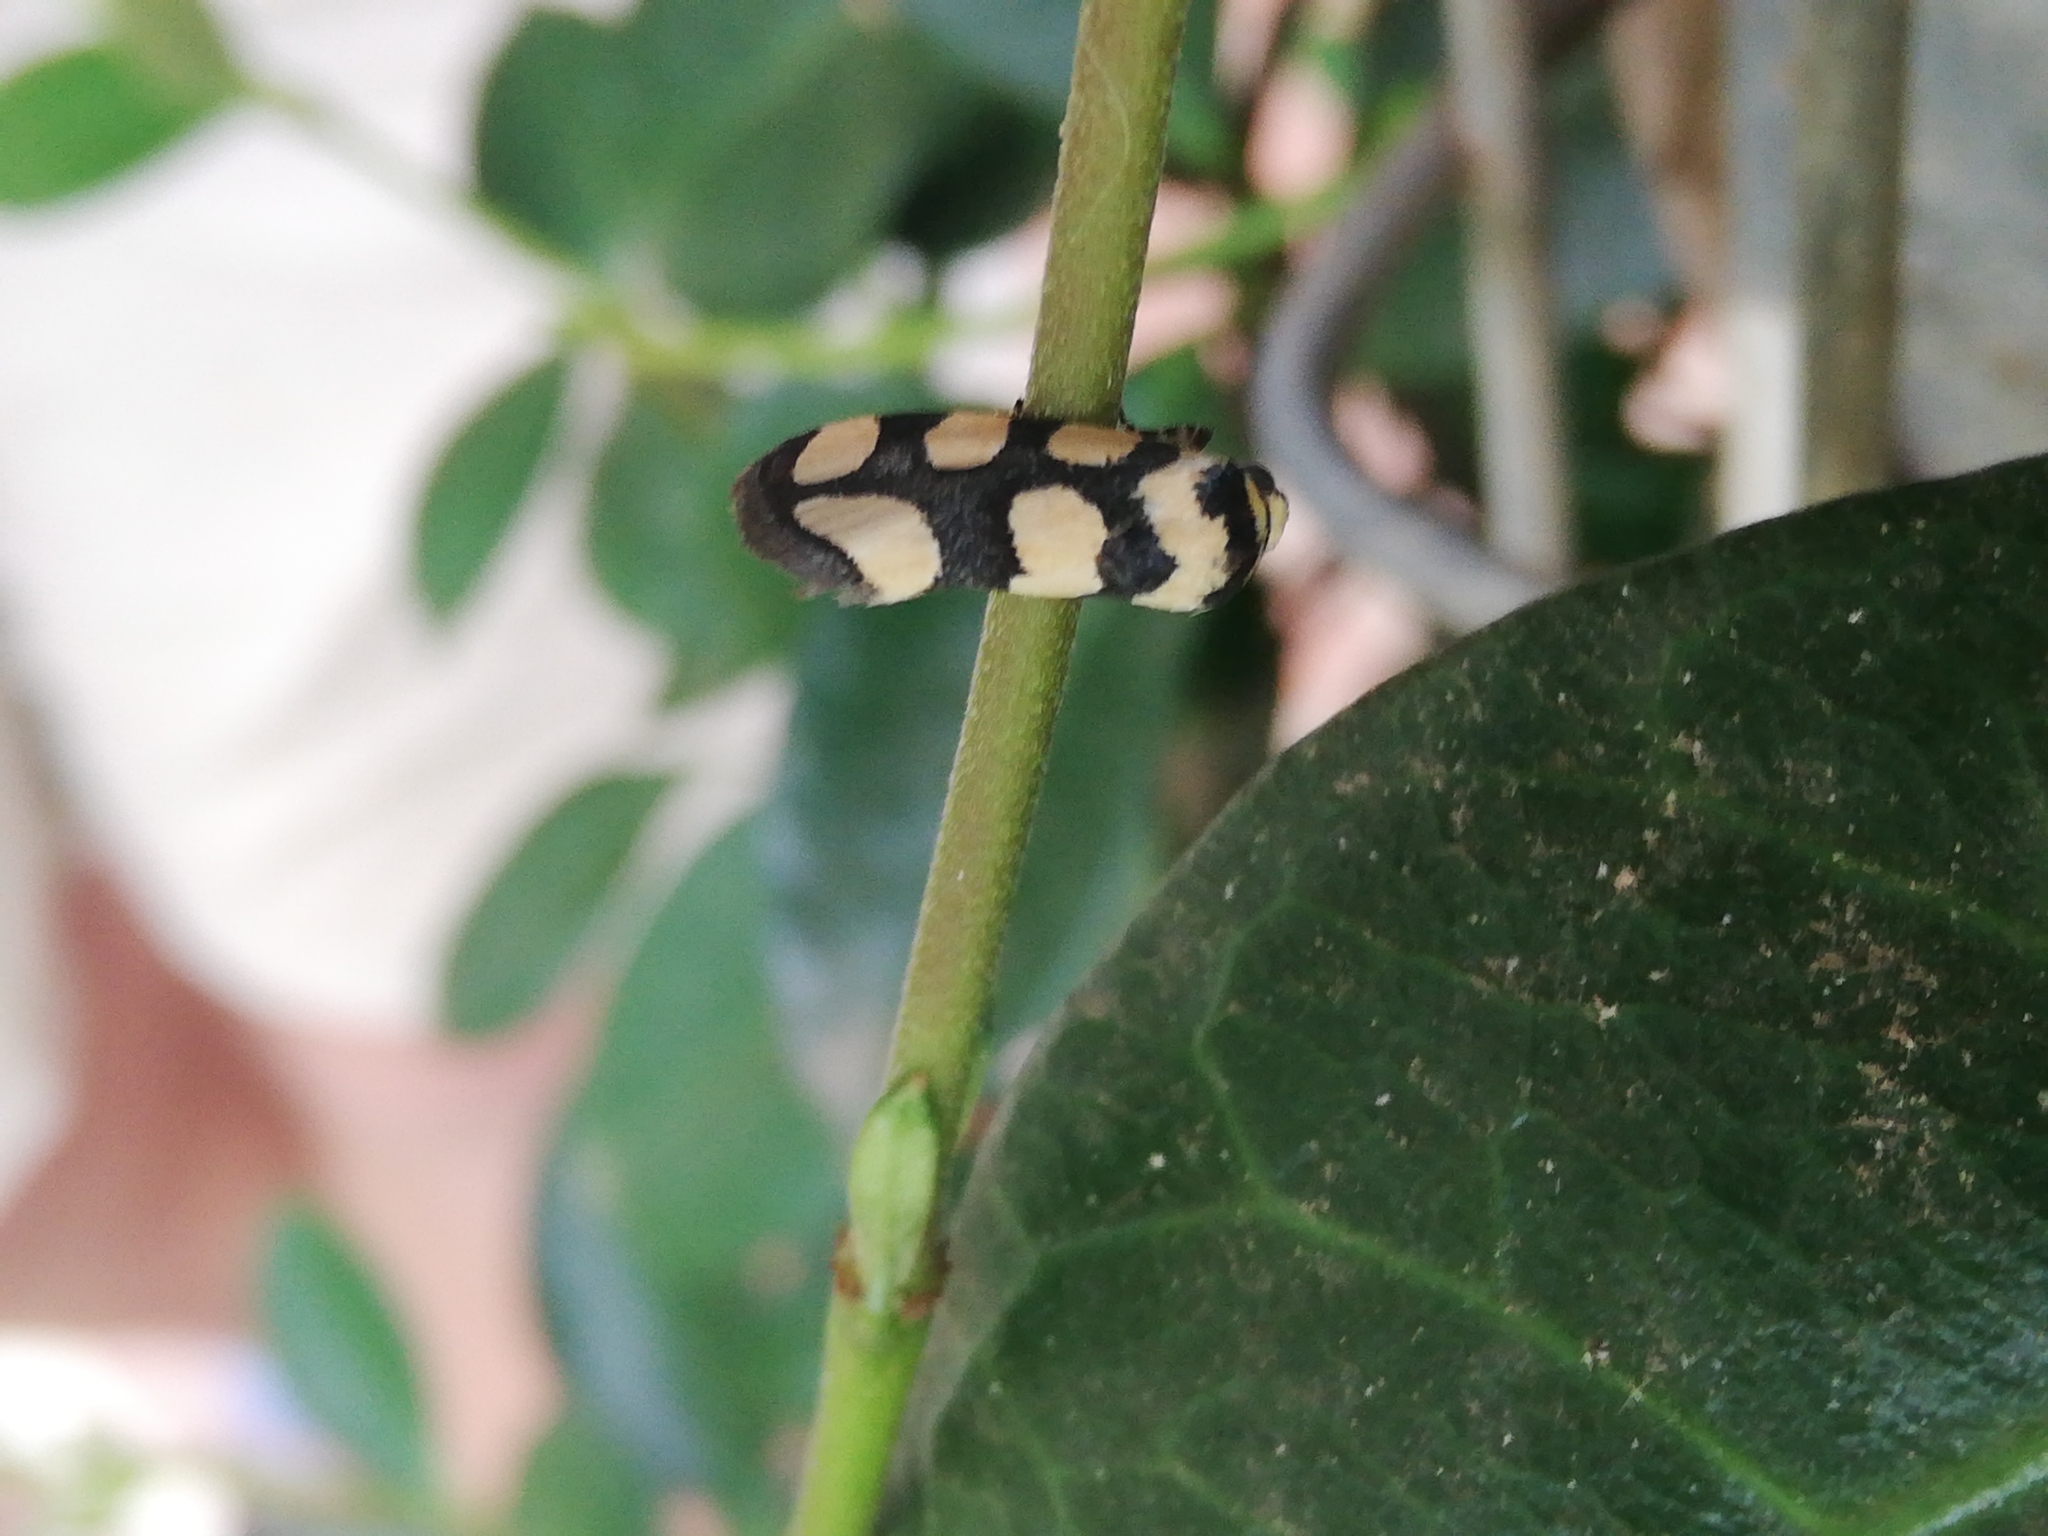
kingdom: Animalia
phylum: Arthropoda
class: Insecta
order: Lepidoptera
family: Noctuidae
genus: Acontia
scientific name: Acontia guttifera
